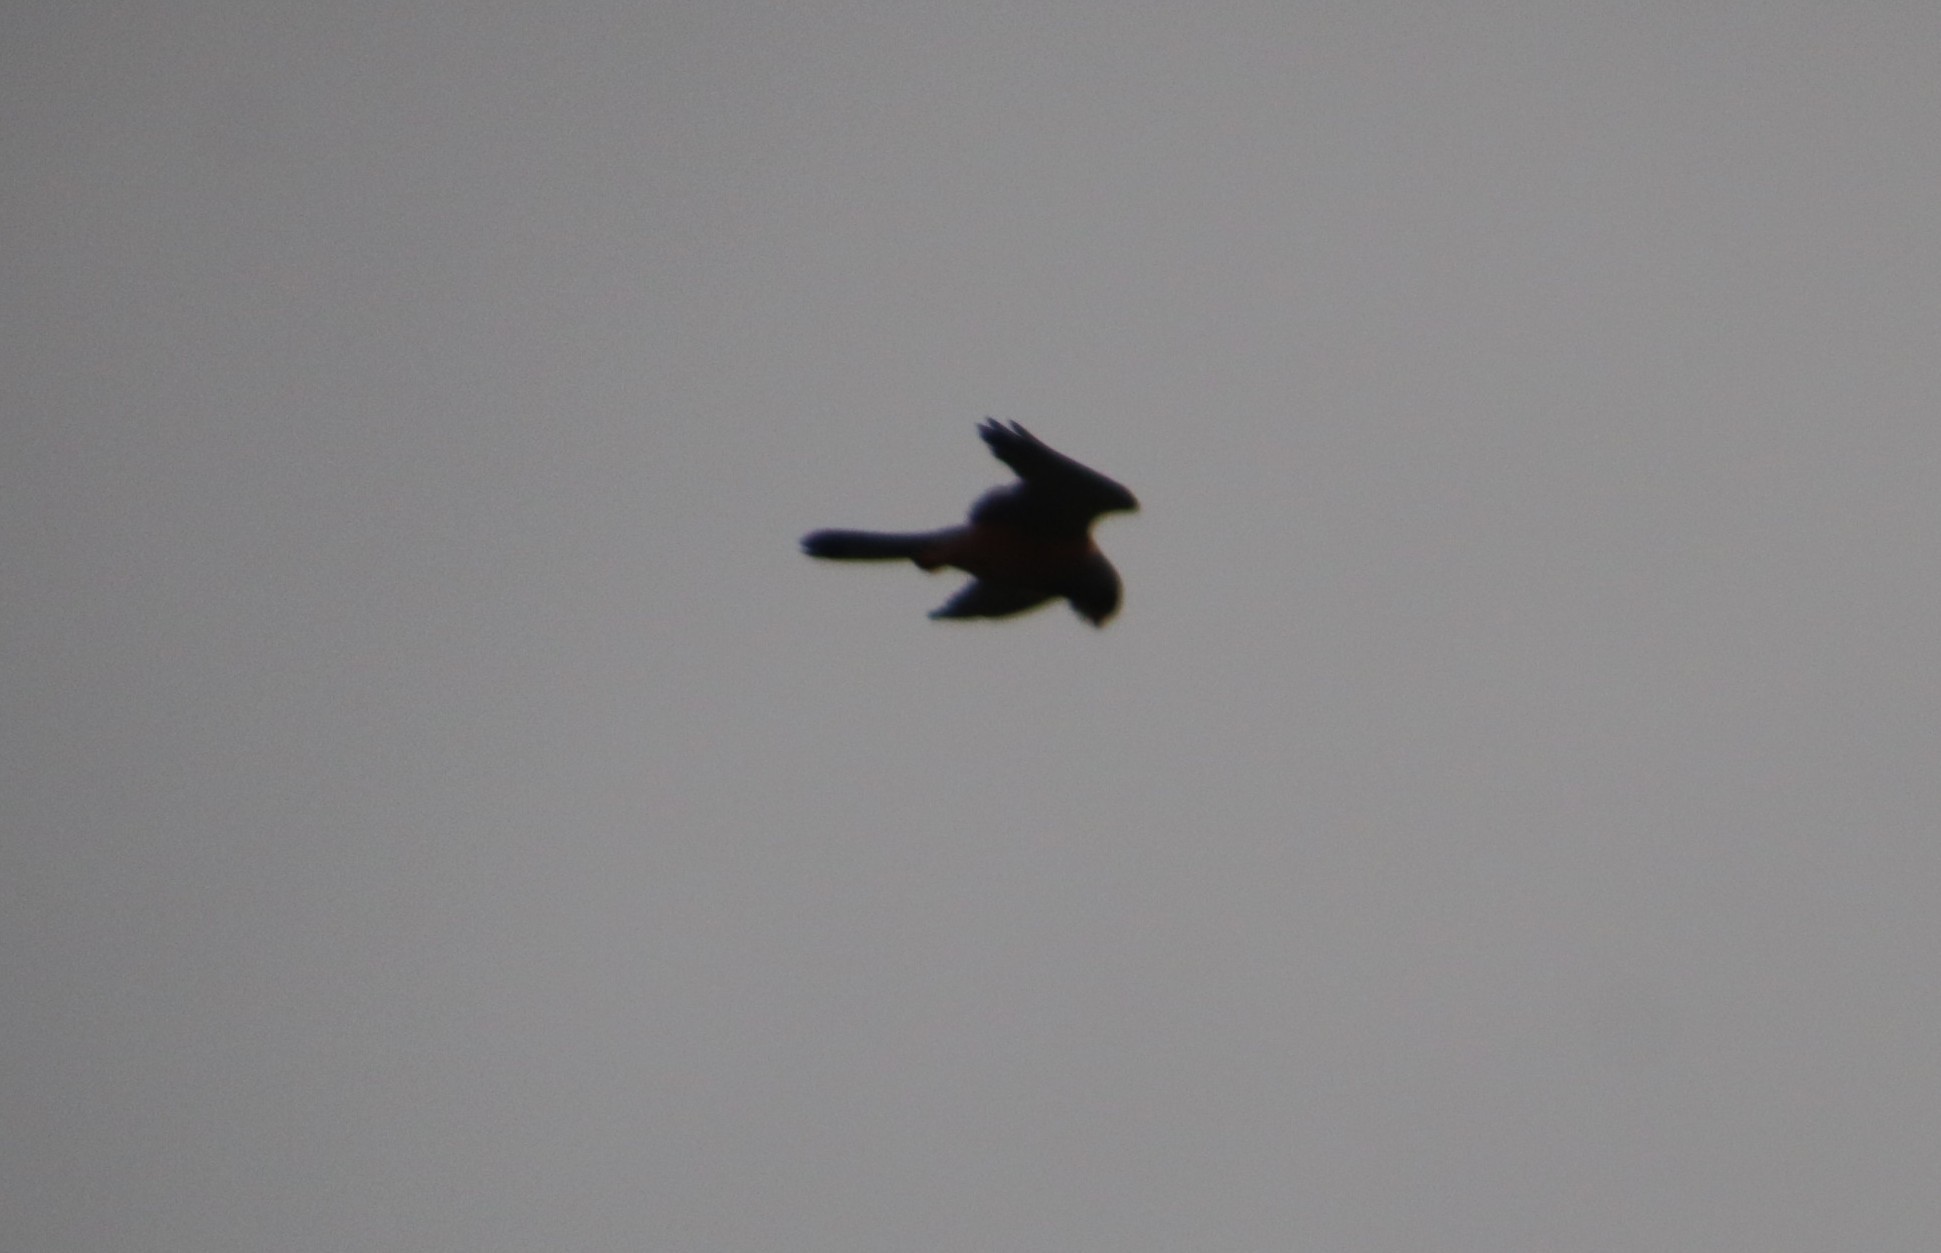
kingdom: Animalia
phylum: Chordata
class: Aves
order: Falconiformes
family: Falconidae
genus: Falco
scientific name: Falco rupicolus
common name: Rock kestrel
